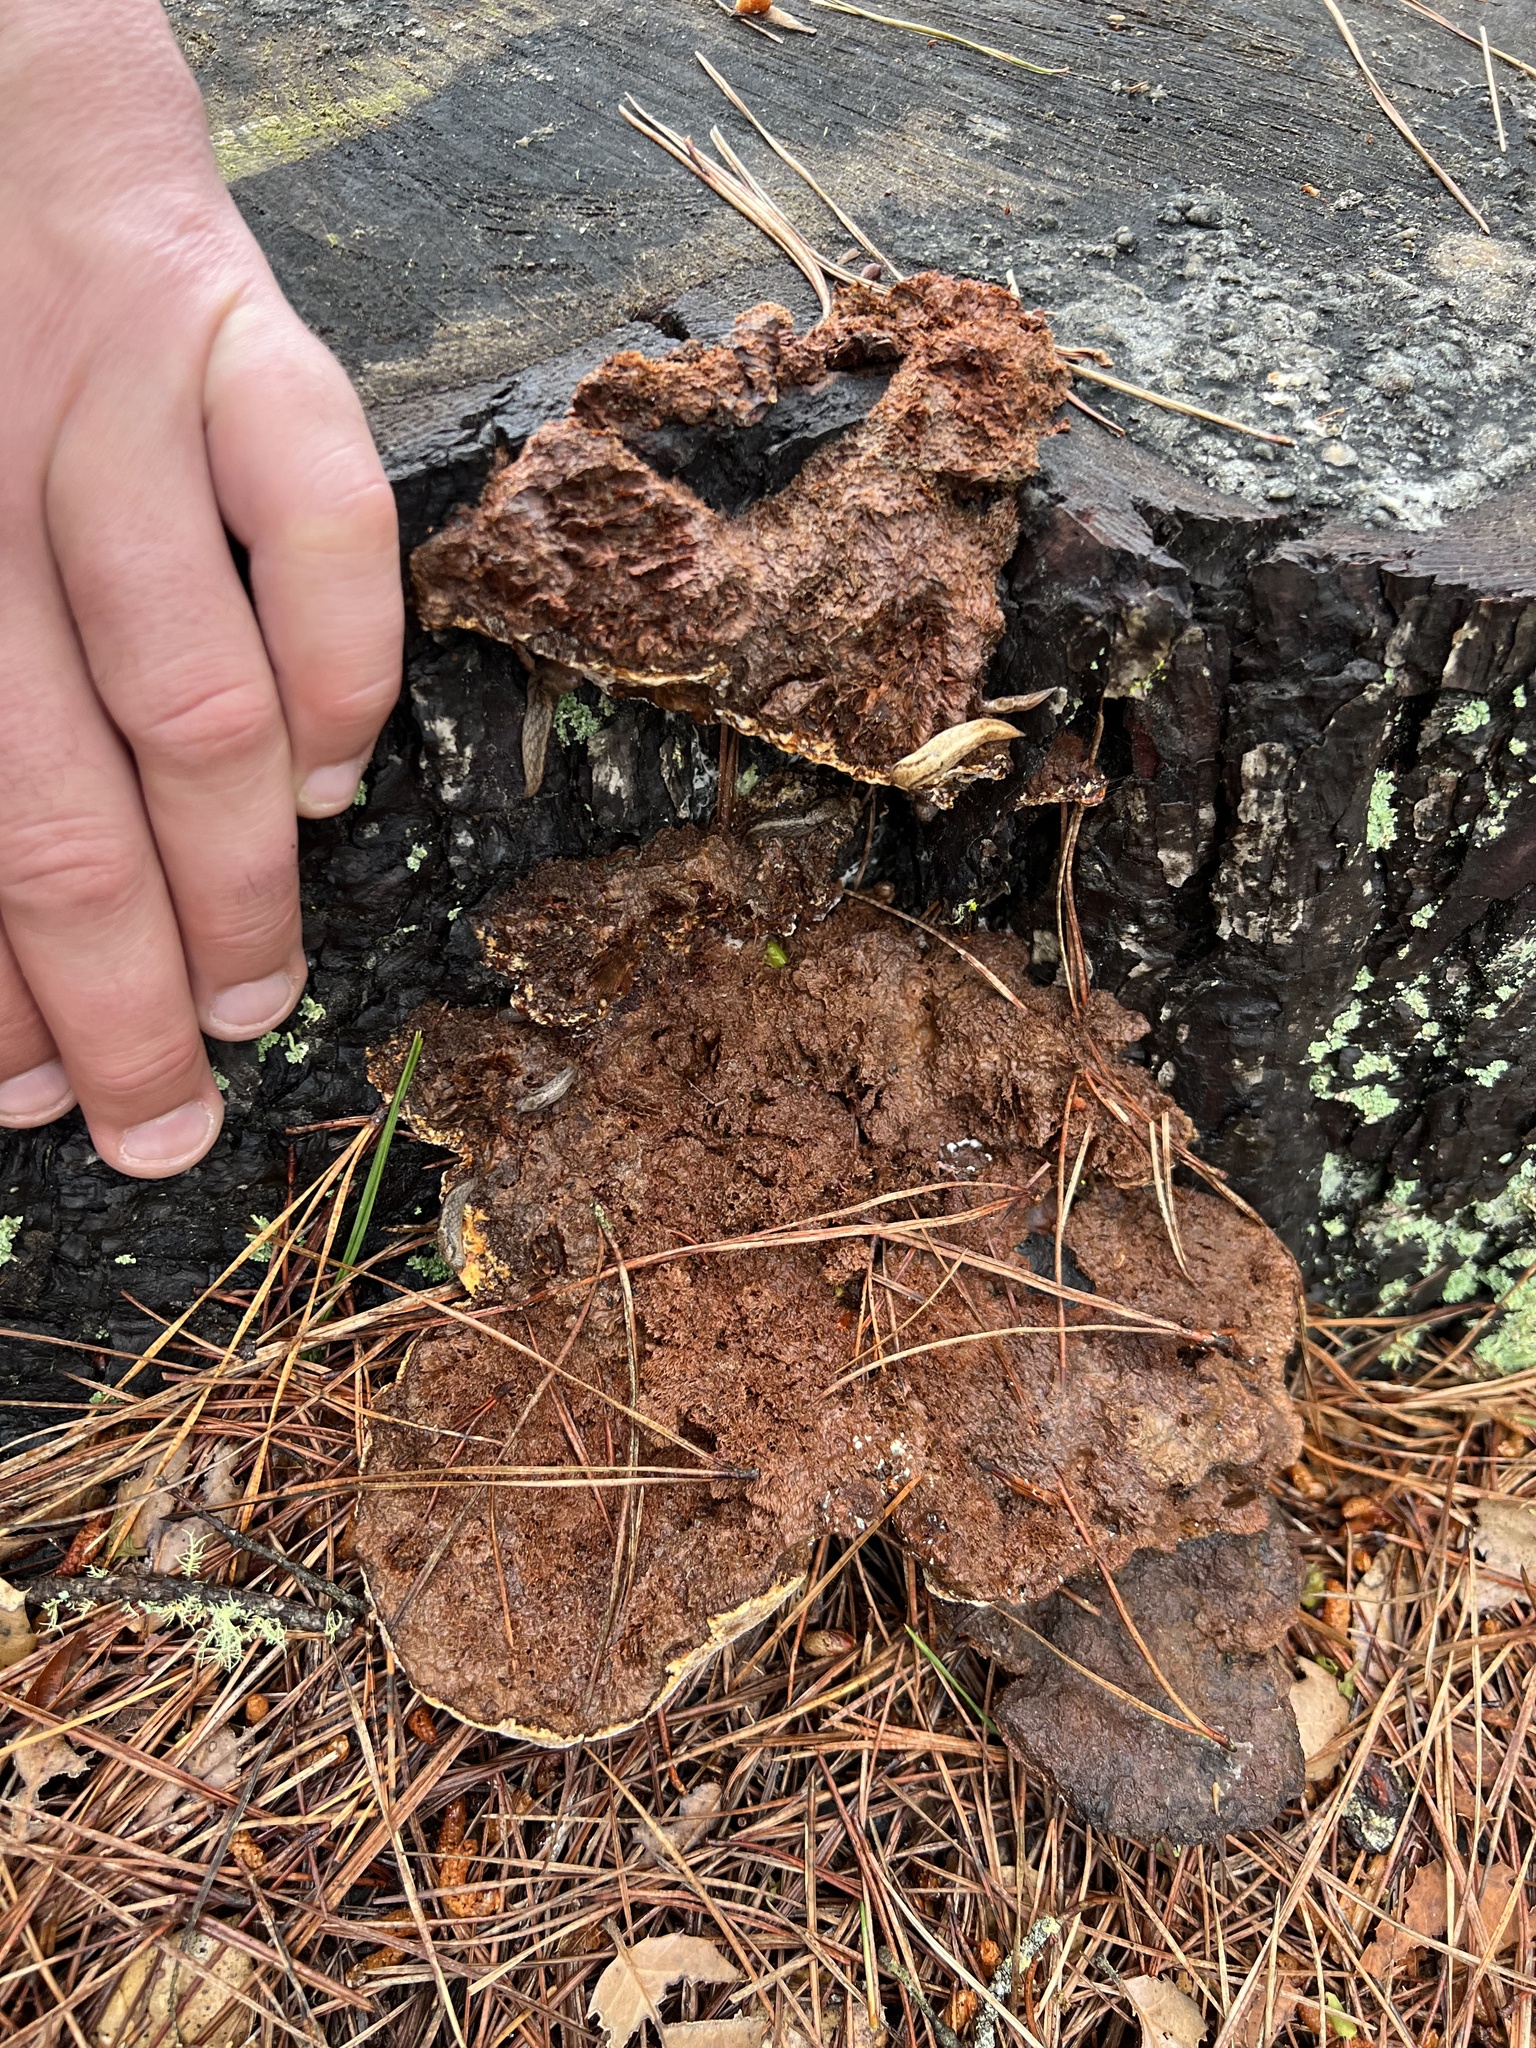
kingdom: Fungi
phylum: Basidiomycota
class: Agaricomycetes
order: Polyporales
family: Laetiporaceae
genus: Phaeolus
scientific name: Phaeolus schweinitzii
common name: Dyer's mazegill
